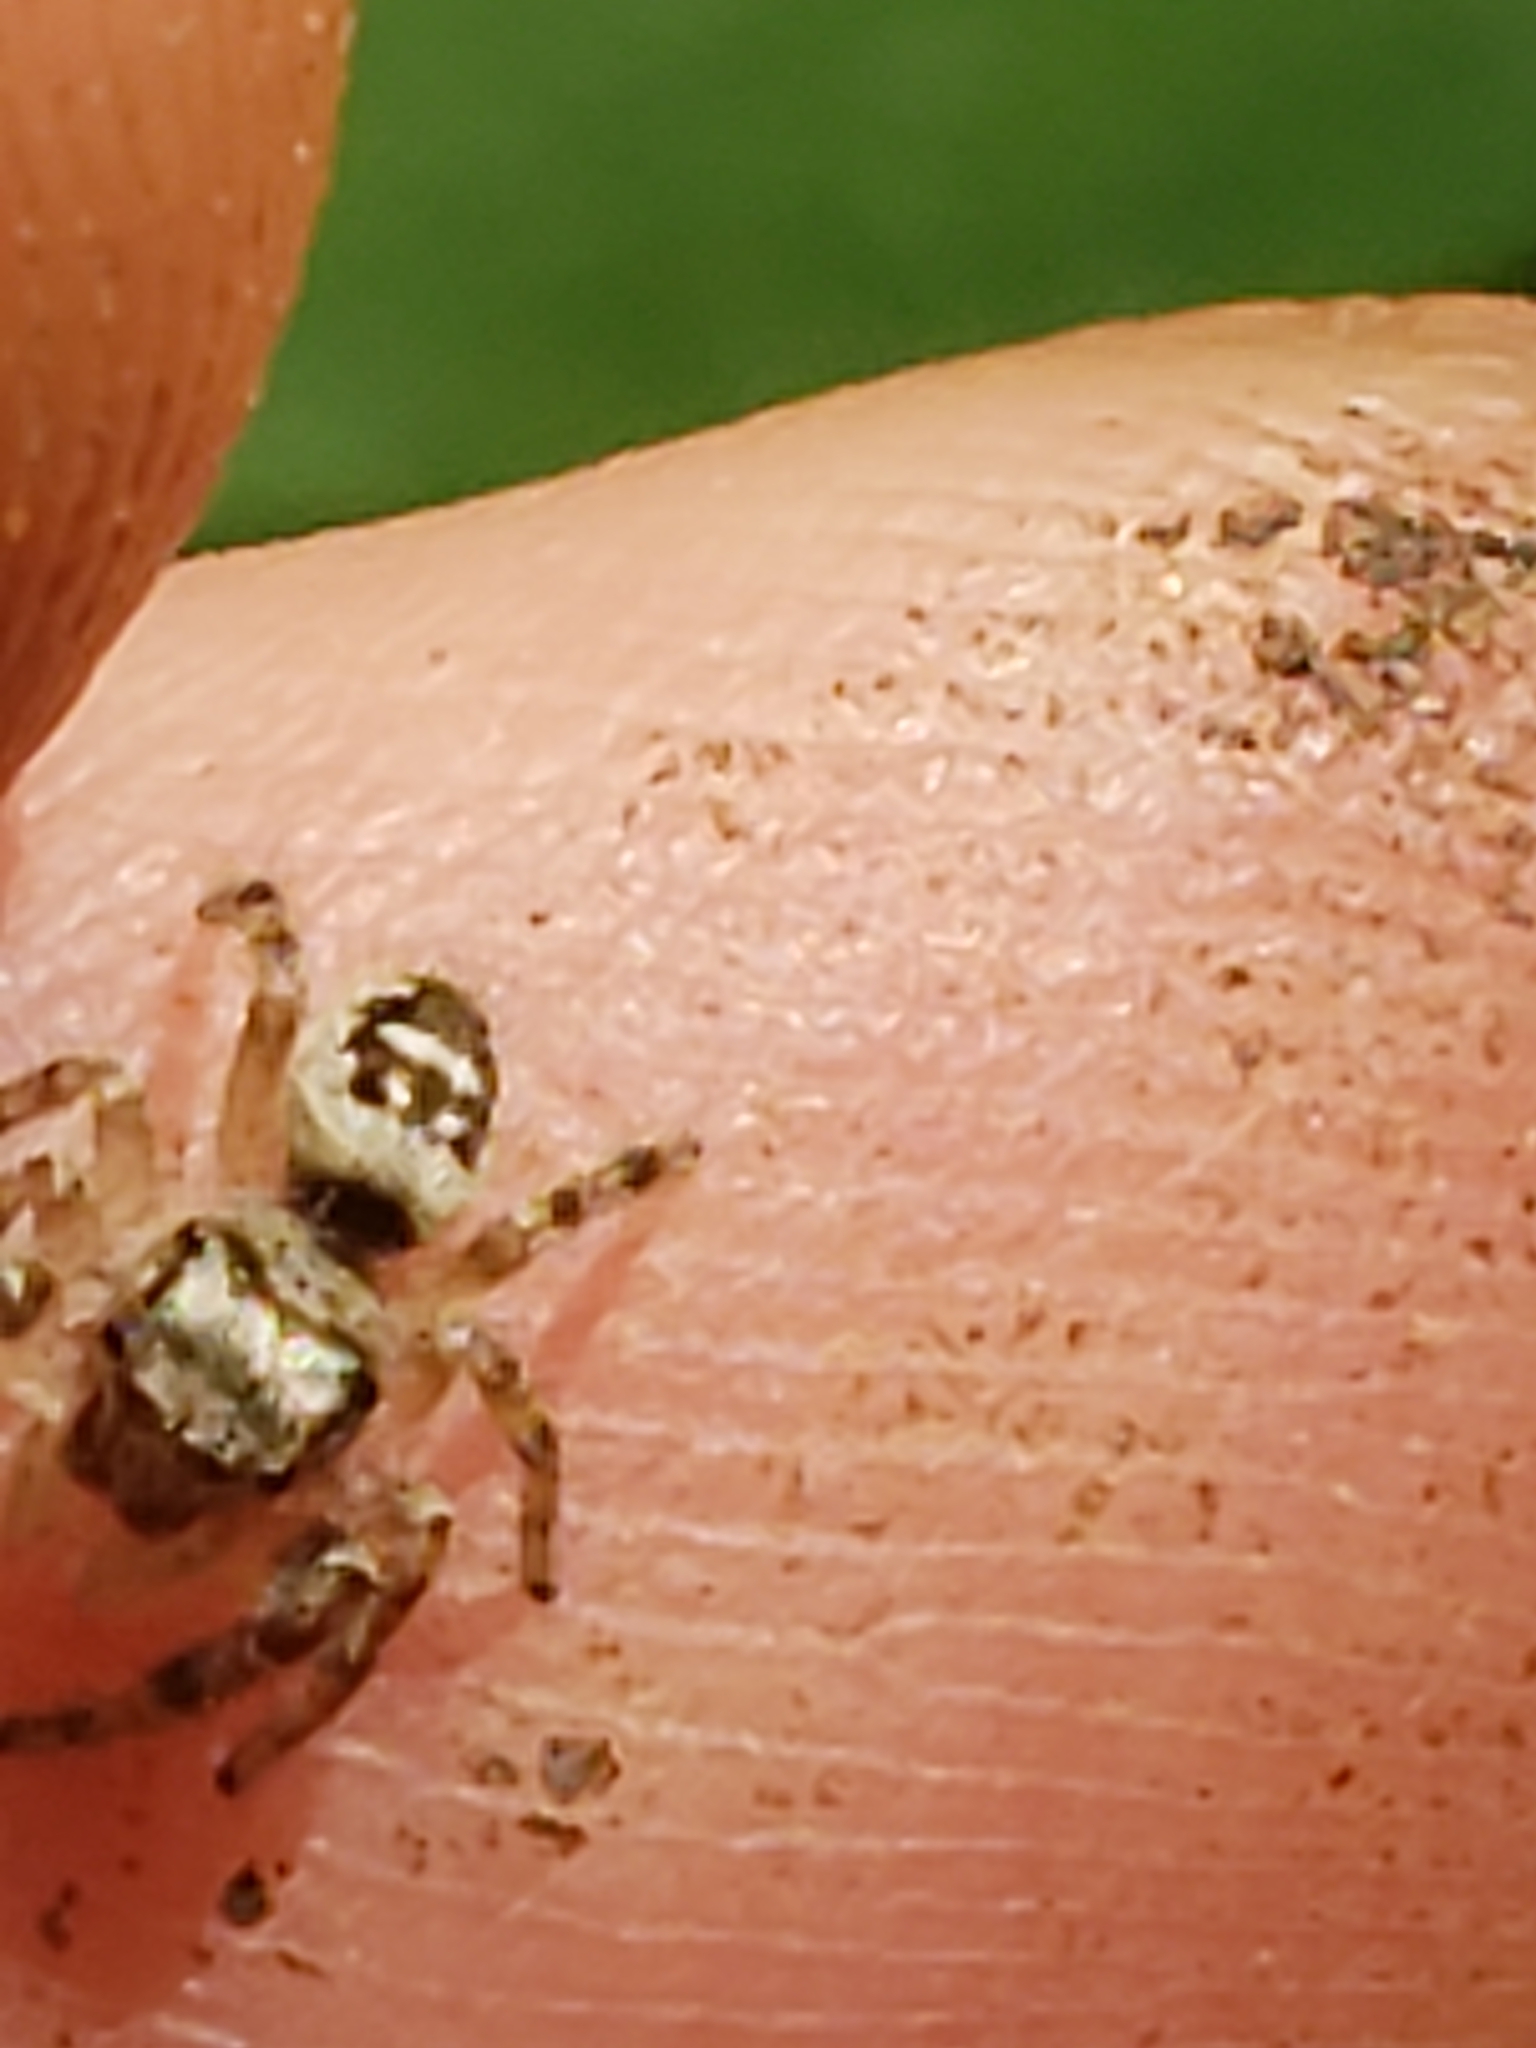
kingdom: Animalia
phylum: Arthropoda
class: Arachnida
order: Araneae
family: Salticidae
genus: Phidippus
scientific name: Phidippus otiosus
